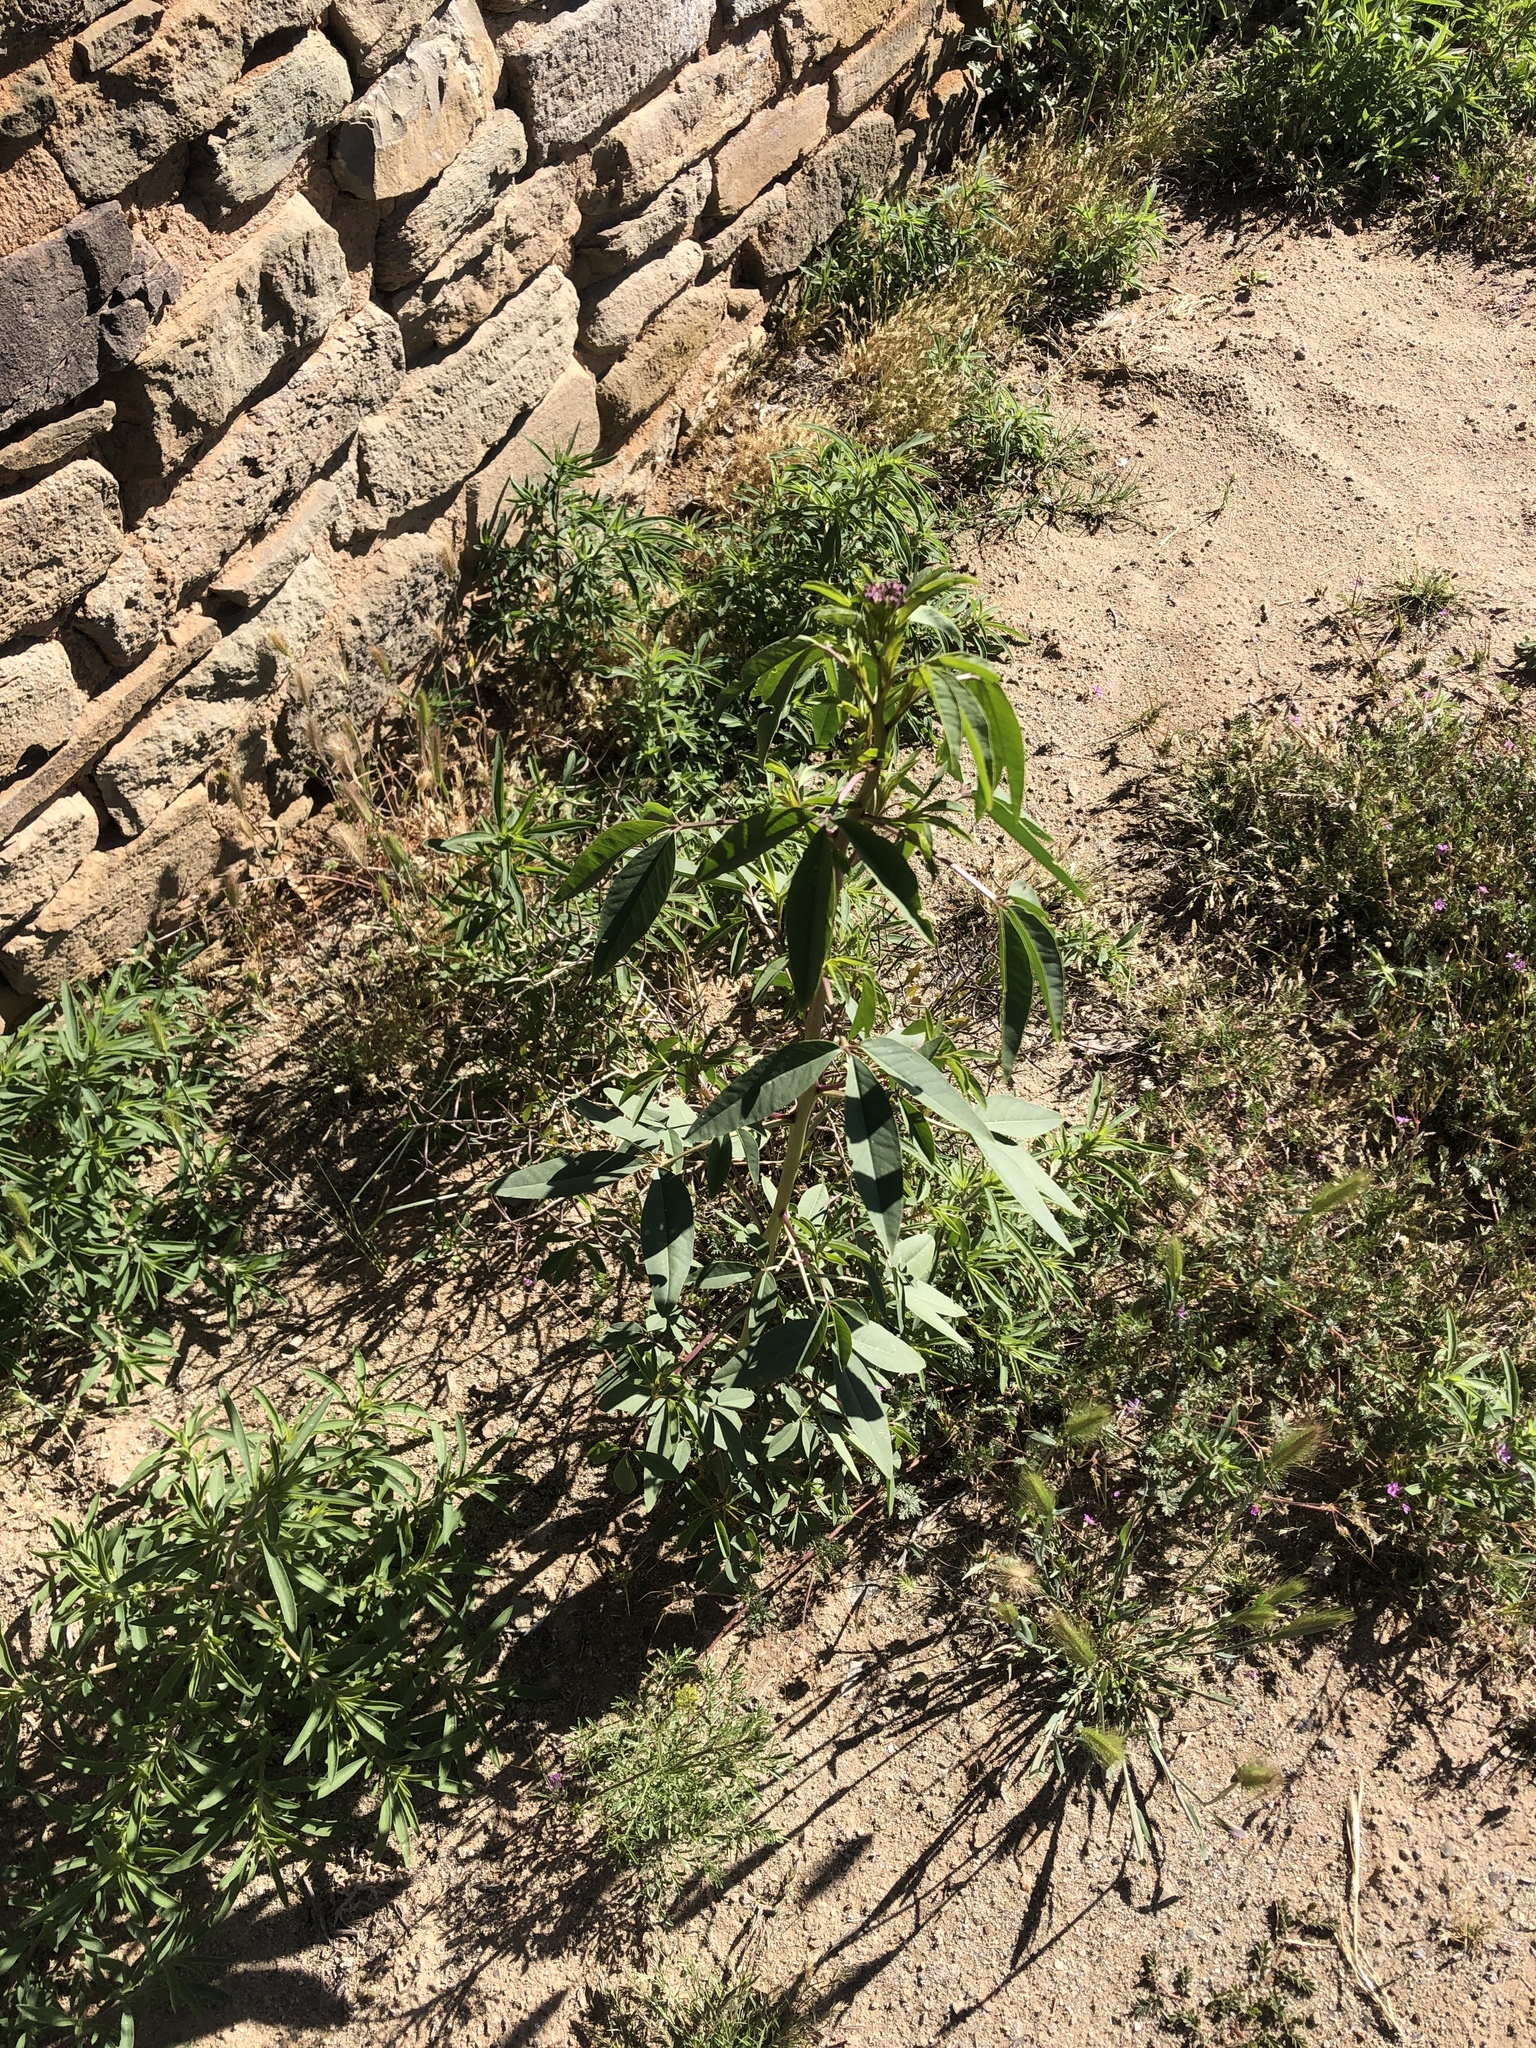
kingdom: Plantae
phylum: Tracheophyta
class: Magnoliopsida
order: Brassicales
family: Cleomaceae
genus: Cleomella
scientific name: Cleomella serrulata
